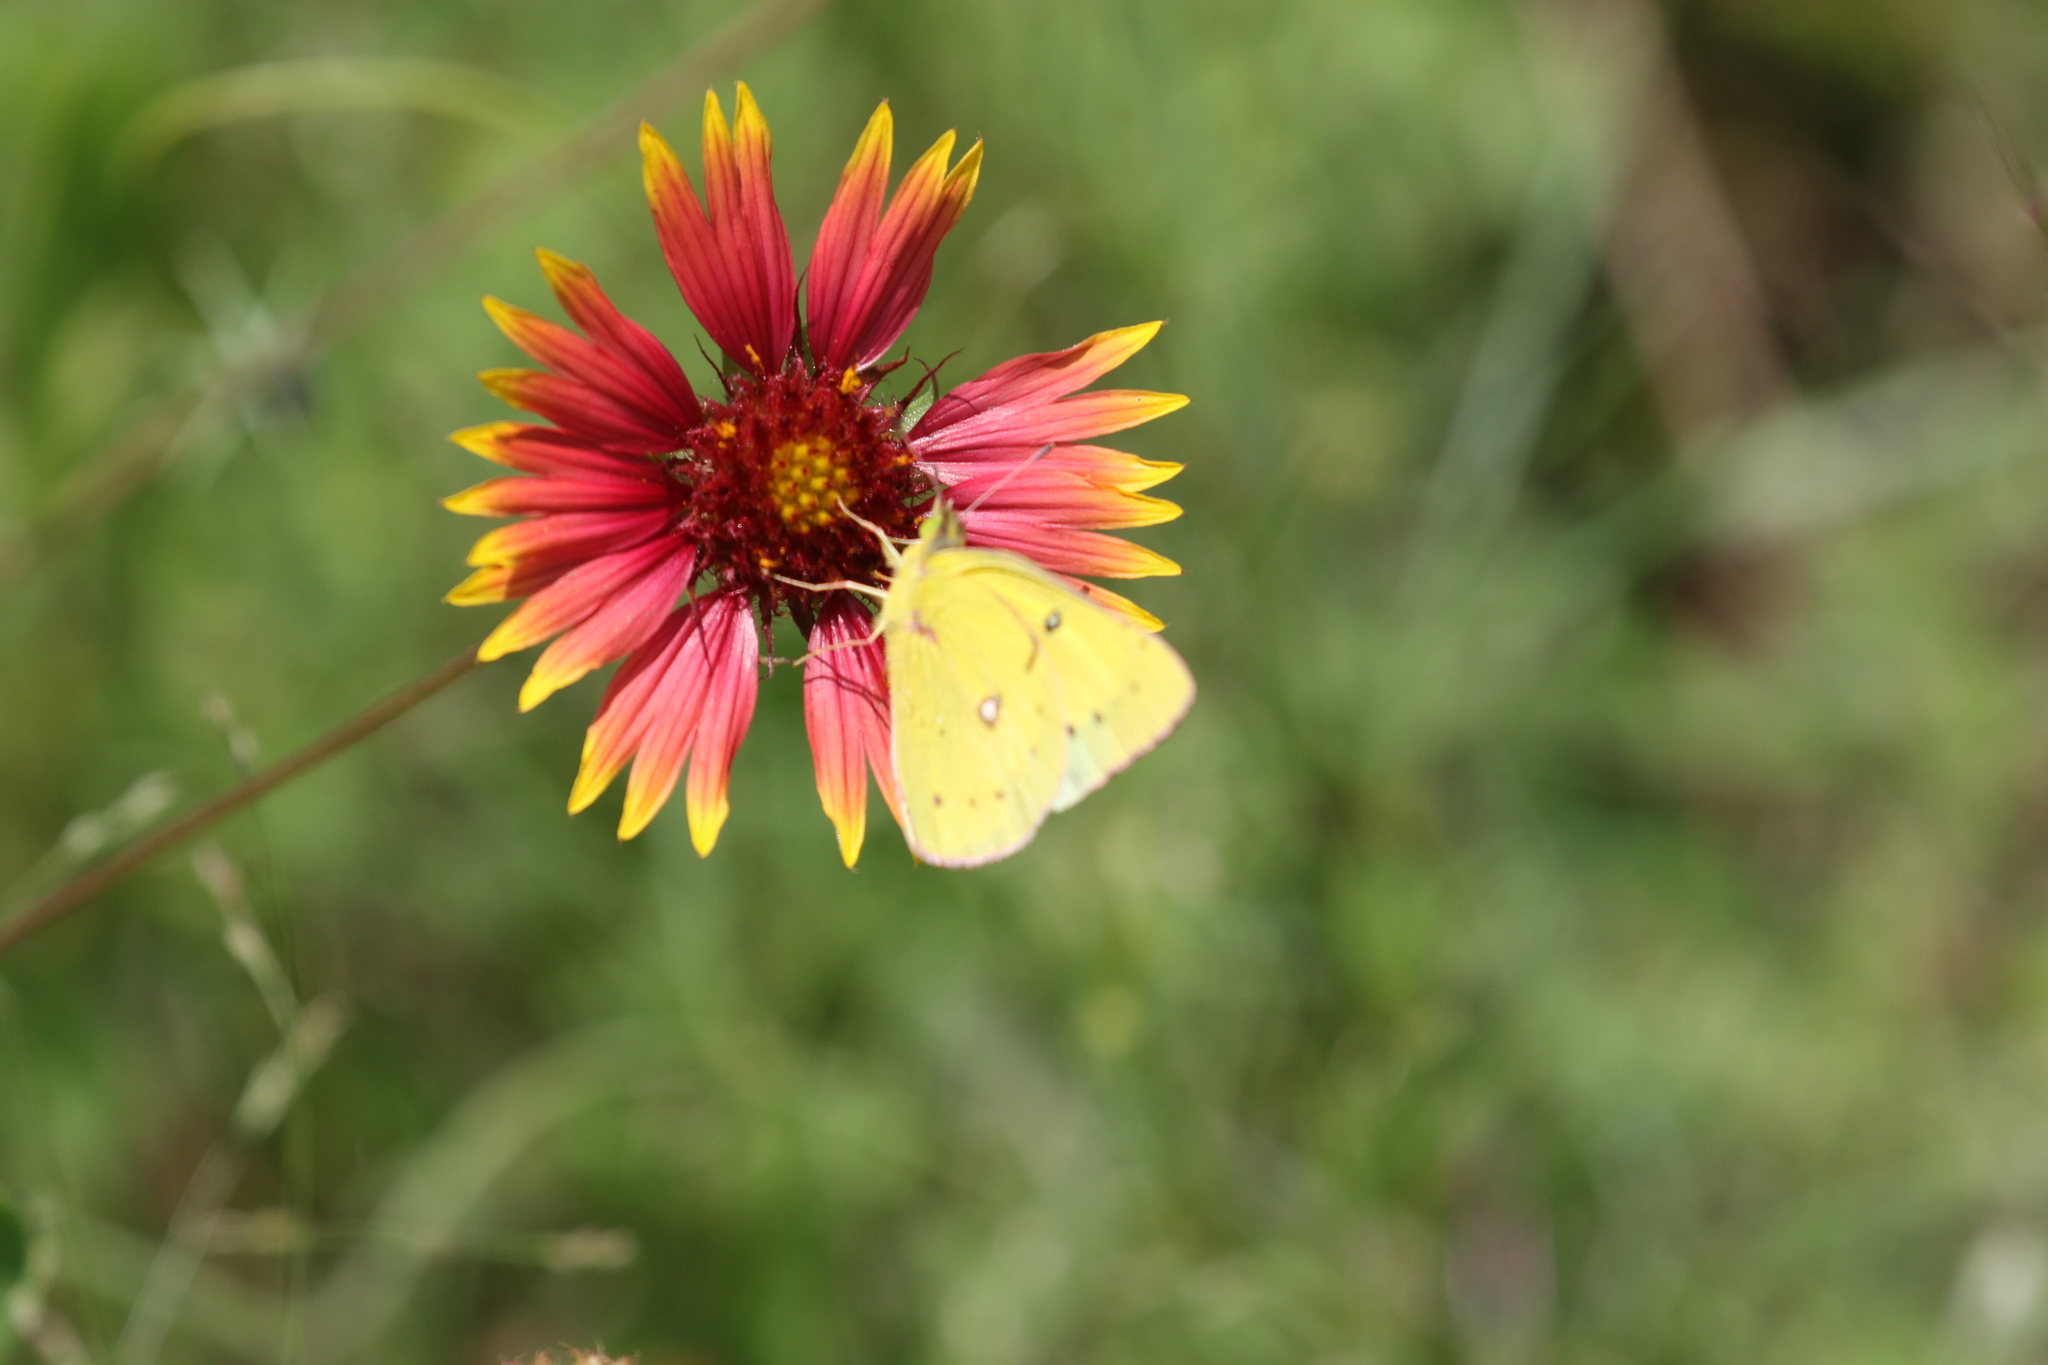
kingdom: Animalia
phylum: Arthropoda
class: Insecta
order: Lepidoptera
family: Pieridae
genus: Colias
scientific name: Colias eurytheme
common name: Alfalfa butterfly
